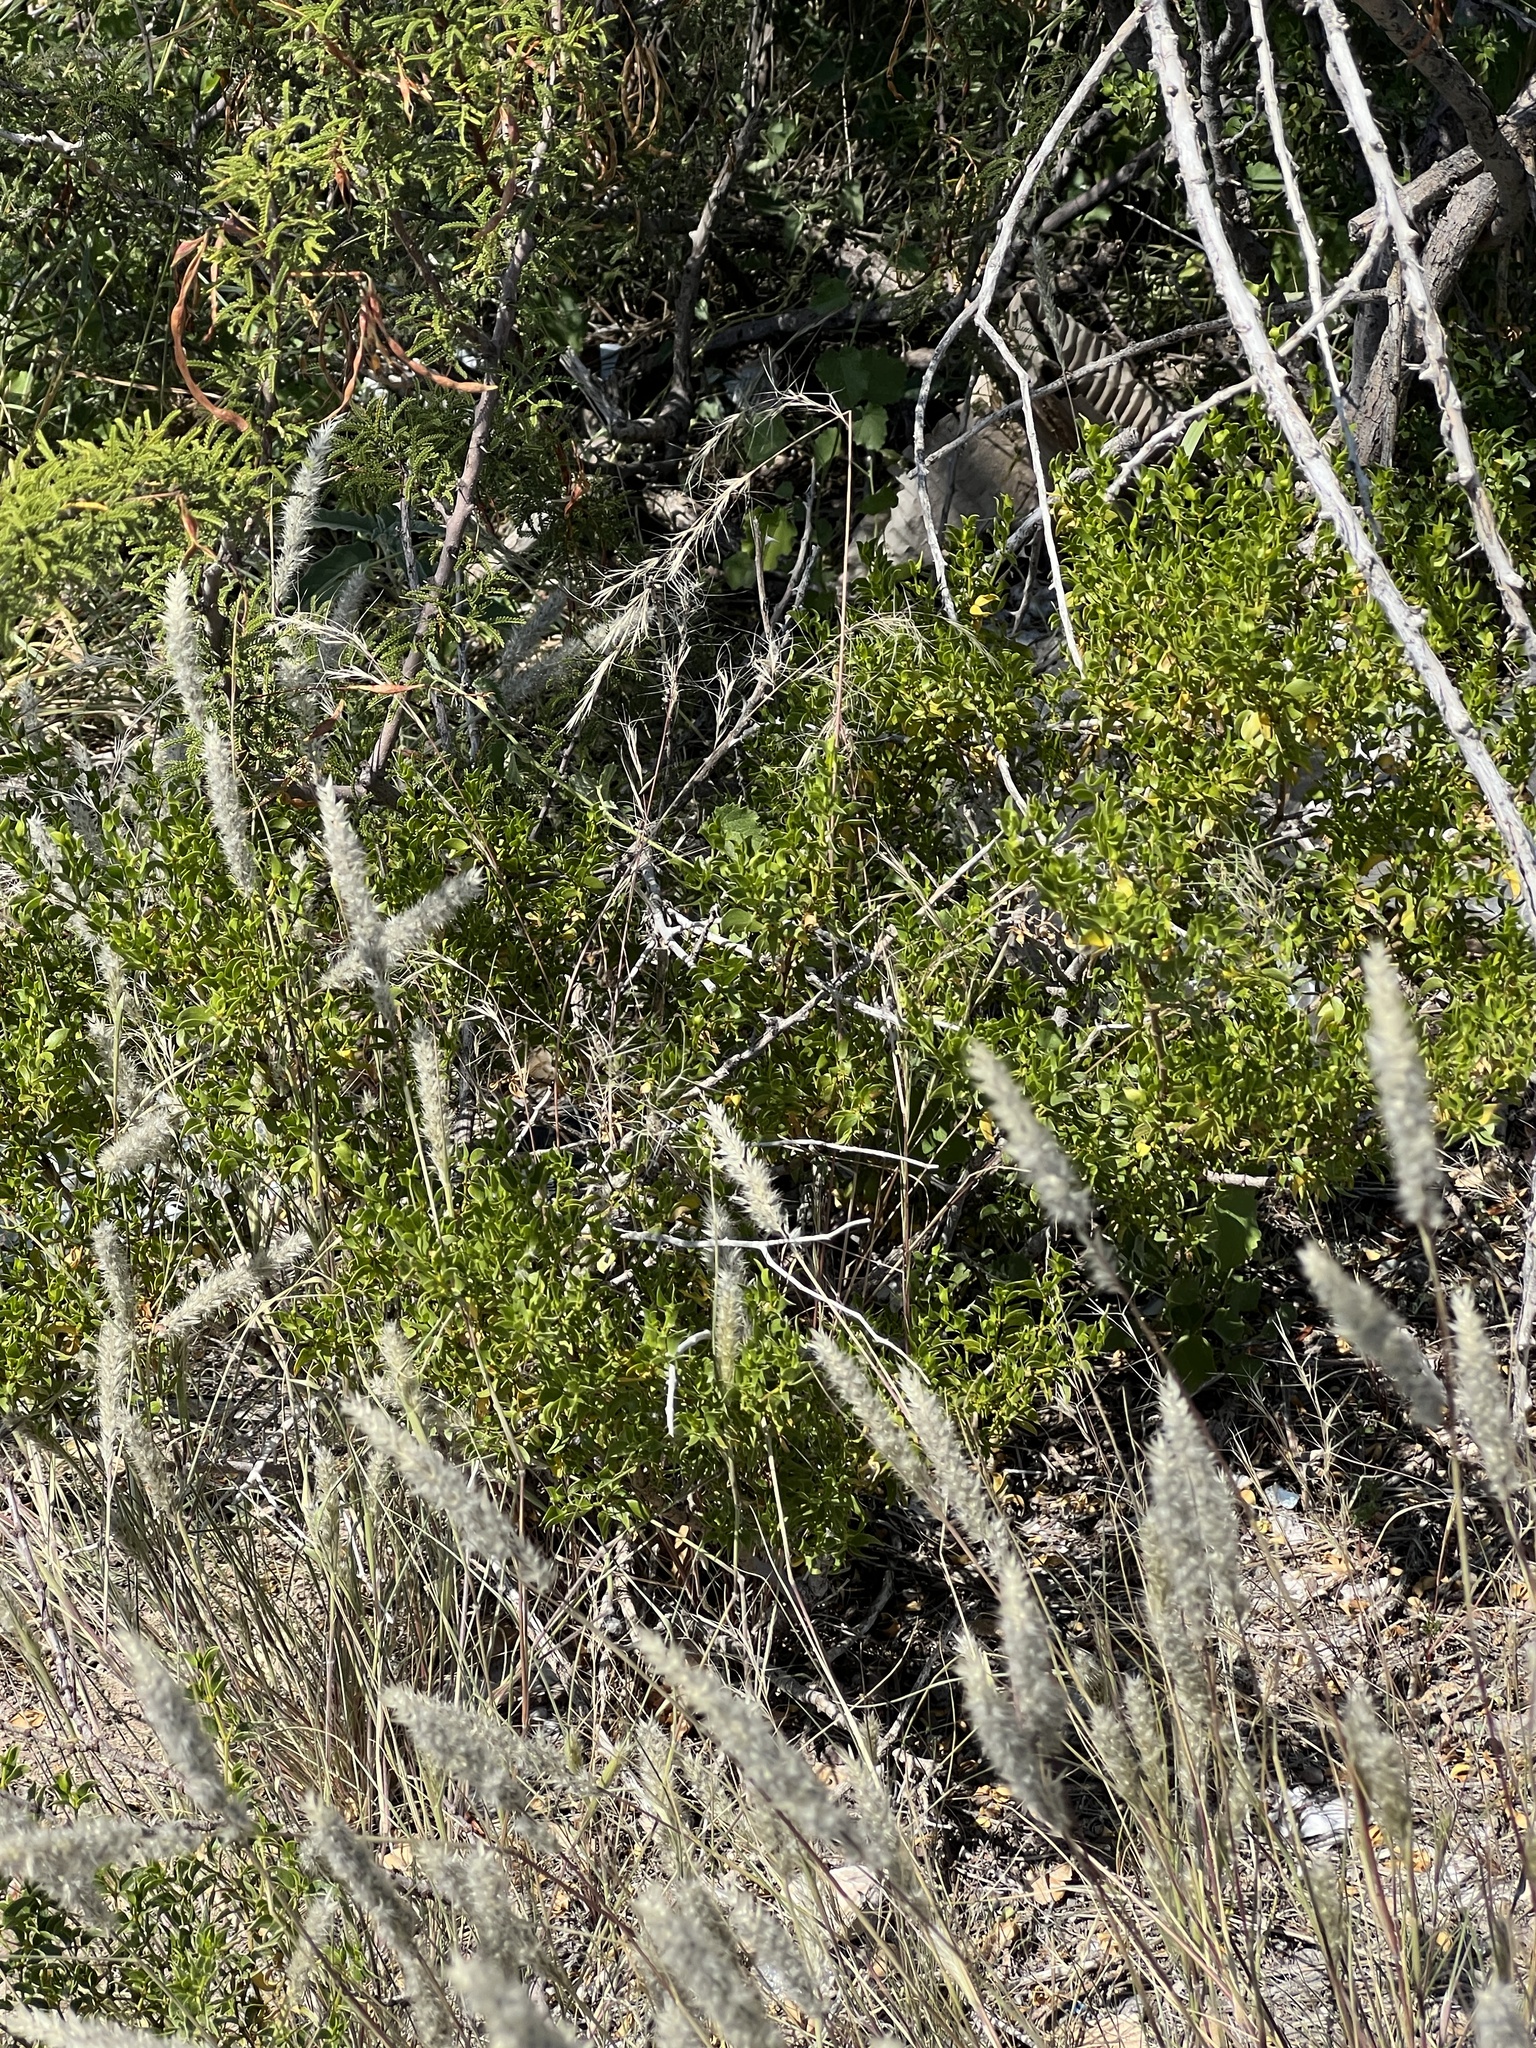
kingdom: Plantae
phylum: Tracheophyta
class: Liliopsida
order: Poales
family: Poaceae
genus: Muhlenbergia
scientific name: Muhlenbergia phleoides
